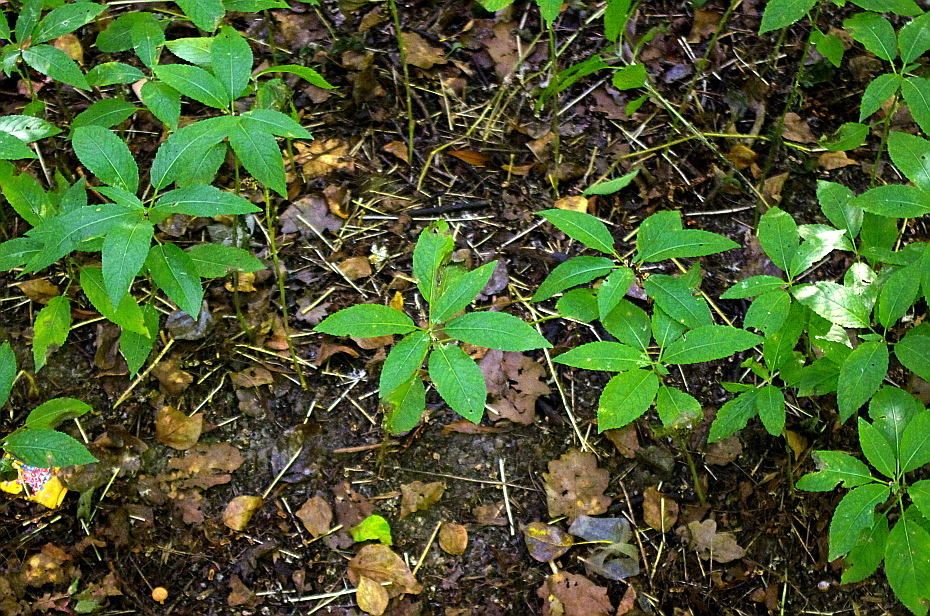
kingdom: Plantae
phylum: Tracheophyta
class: Magnoliopsida
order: Malpighiales
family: Euphorbiaceae
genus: Mercurialis
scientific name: Mercurialis perennis
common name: Dog mercury
